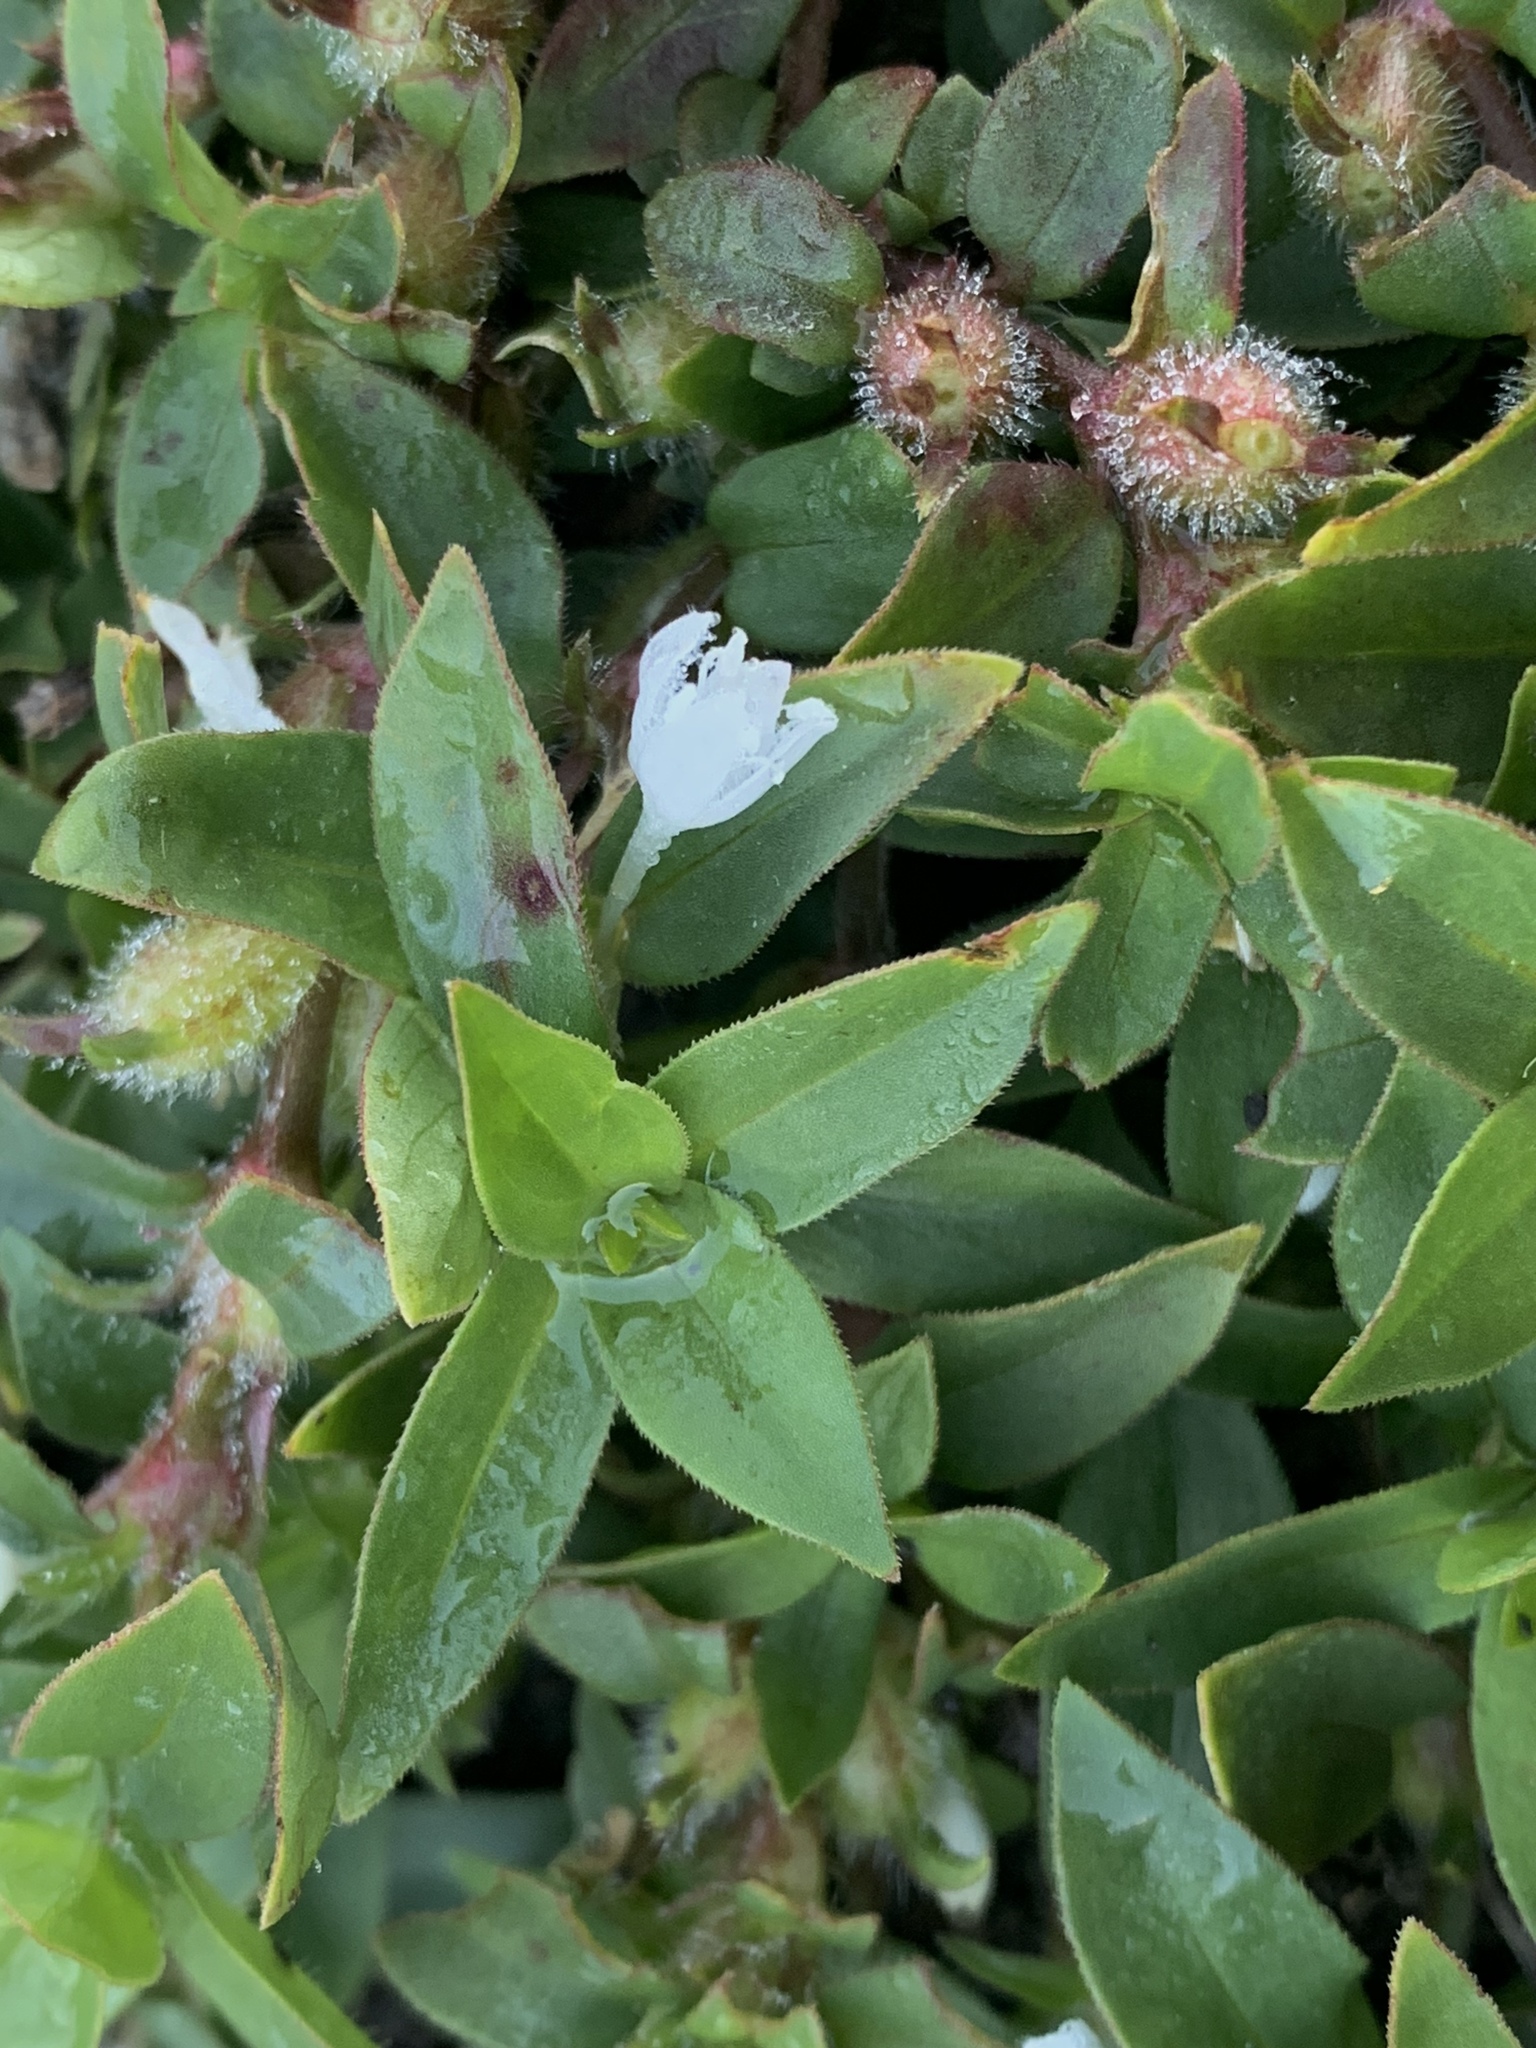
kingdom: Plantae
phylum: Tracheophyta
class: Magnoliopsida
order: Gentianales
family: Rubiaceae
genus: Diodia
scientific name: Diodia virginiana
